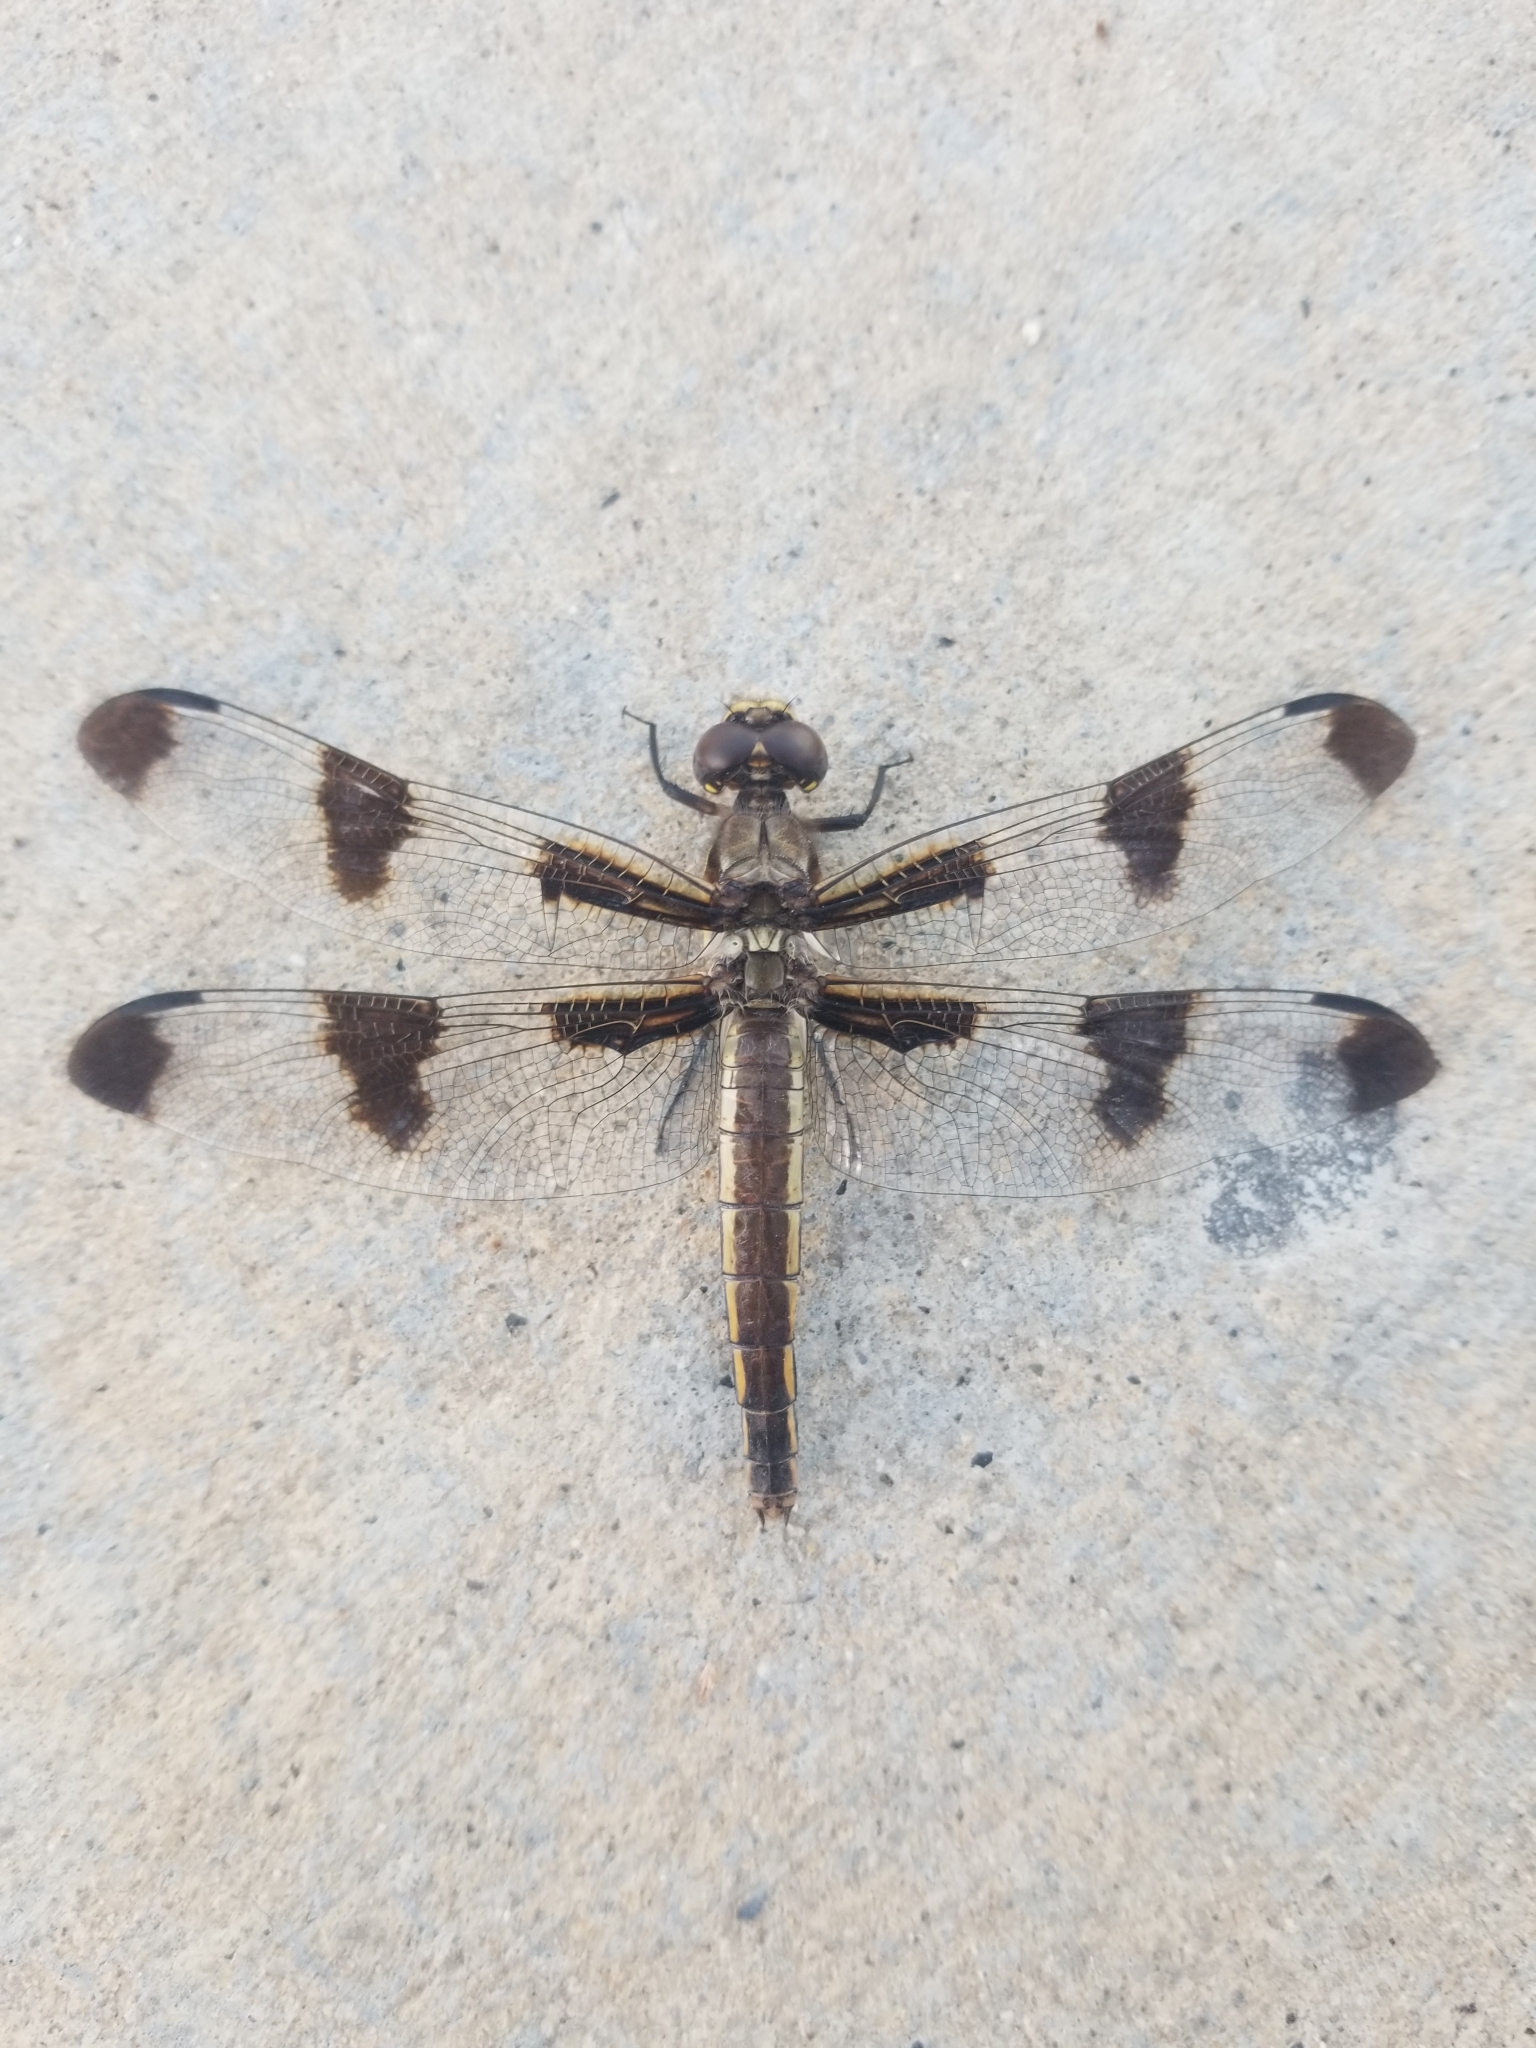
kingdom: Animalia
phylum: Arthropoda
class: Insecta
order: Odonata
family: Libellulidae
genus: Libellula
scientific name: Libellula pulchella
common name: Twelve-spotted skimmer
